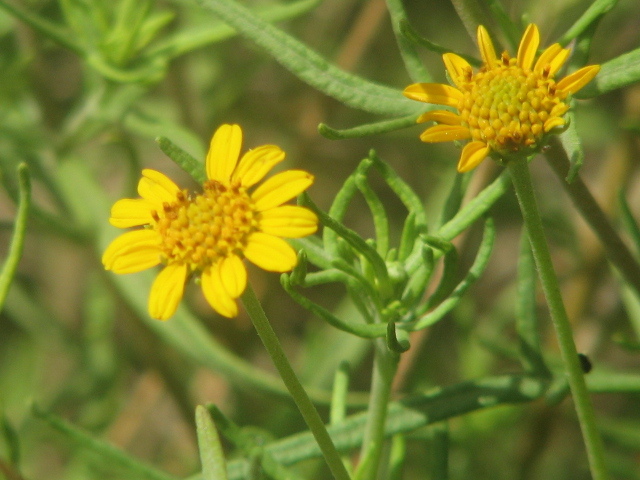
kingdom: Plantae
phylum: Tracheophyta
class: Magnoliopsida
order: Asterales
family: Asteraceae
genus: Sidneya
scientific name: Sidneya tenuifolia
